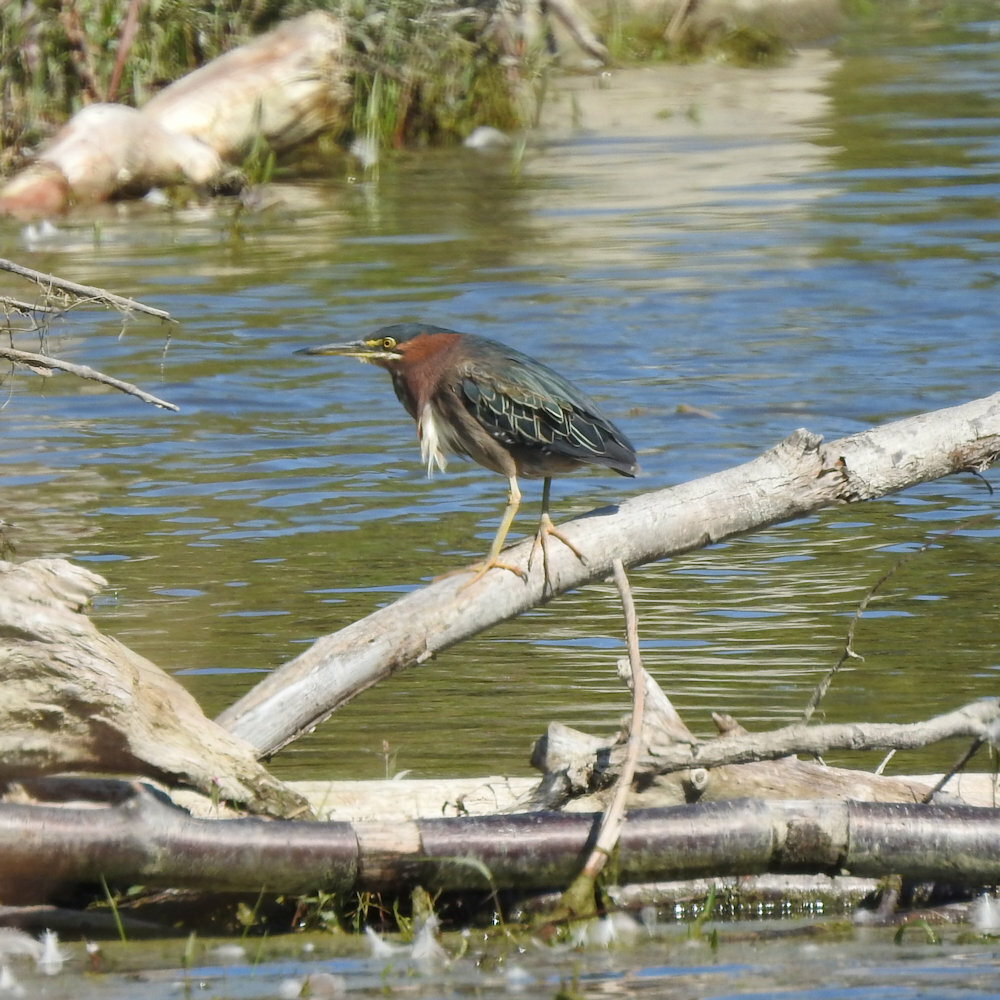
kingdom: Animalia
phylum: Chordata
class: Aves
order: Pelecaniformes
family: Ardeidae
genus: Butorides
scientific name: Butorides virescens
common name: Green heron
